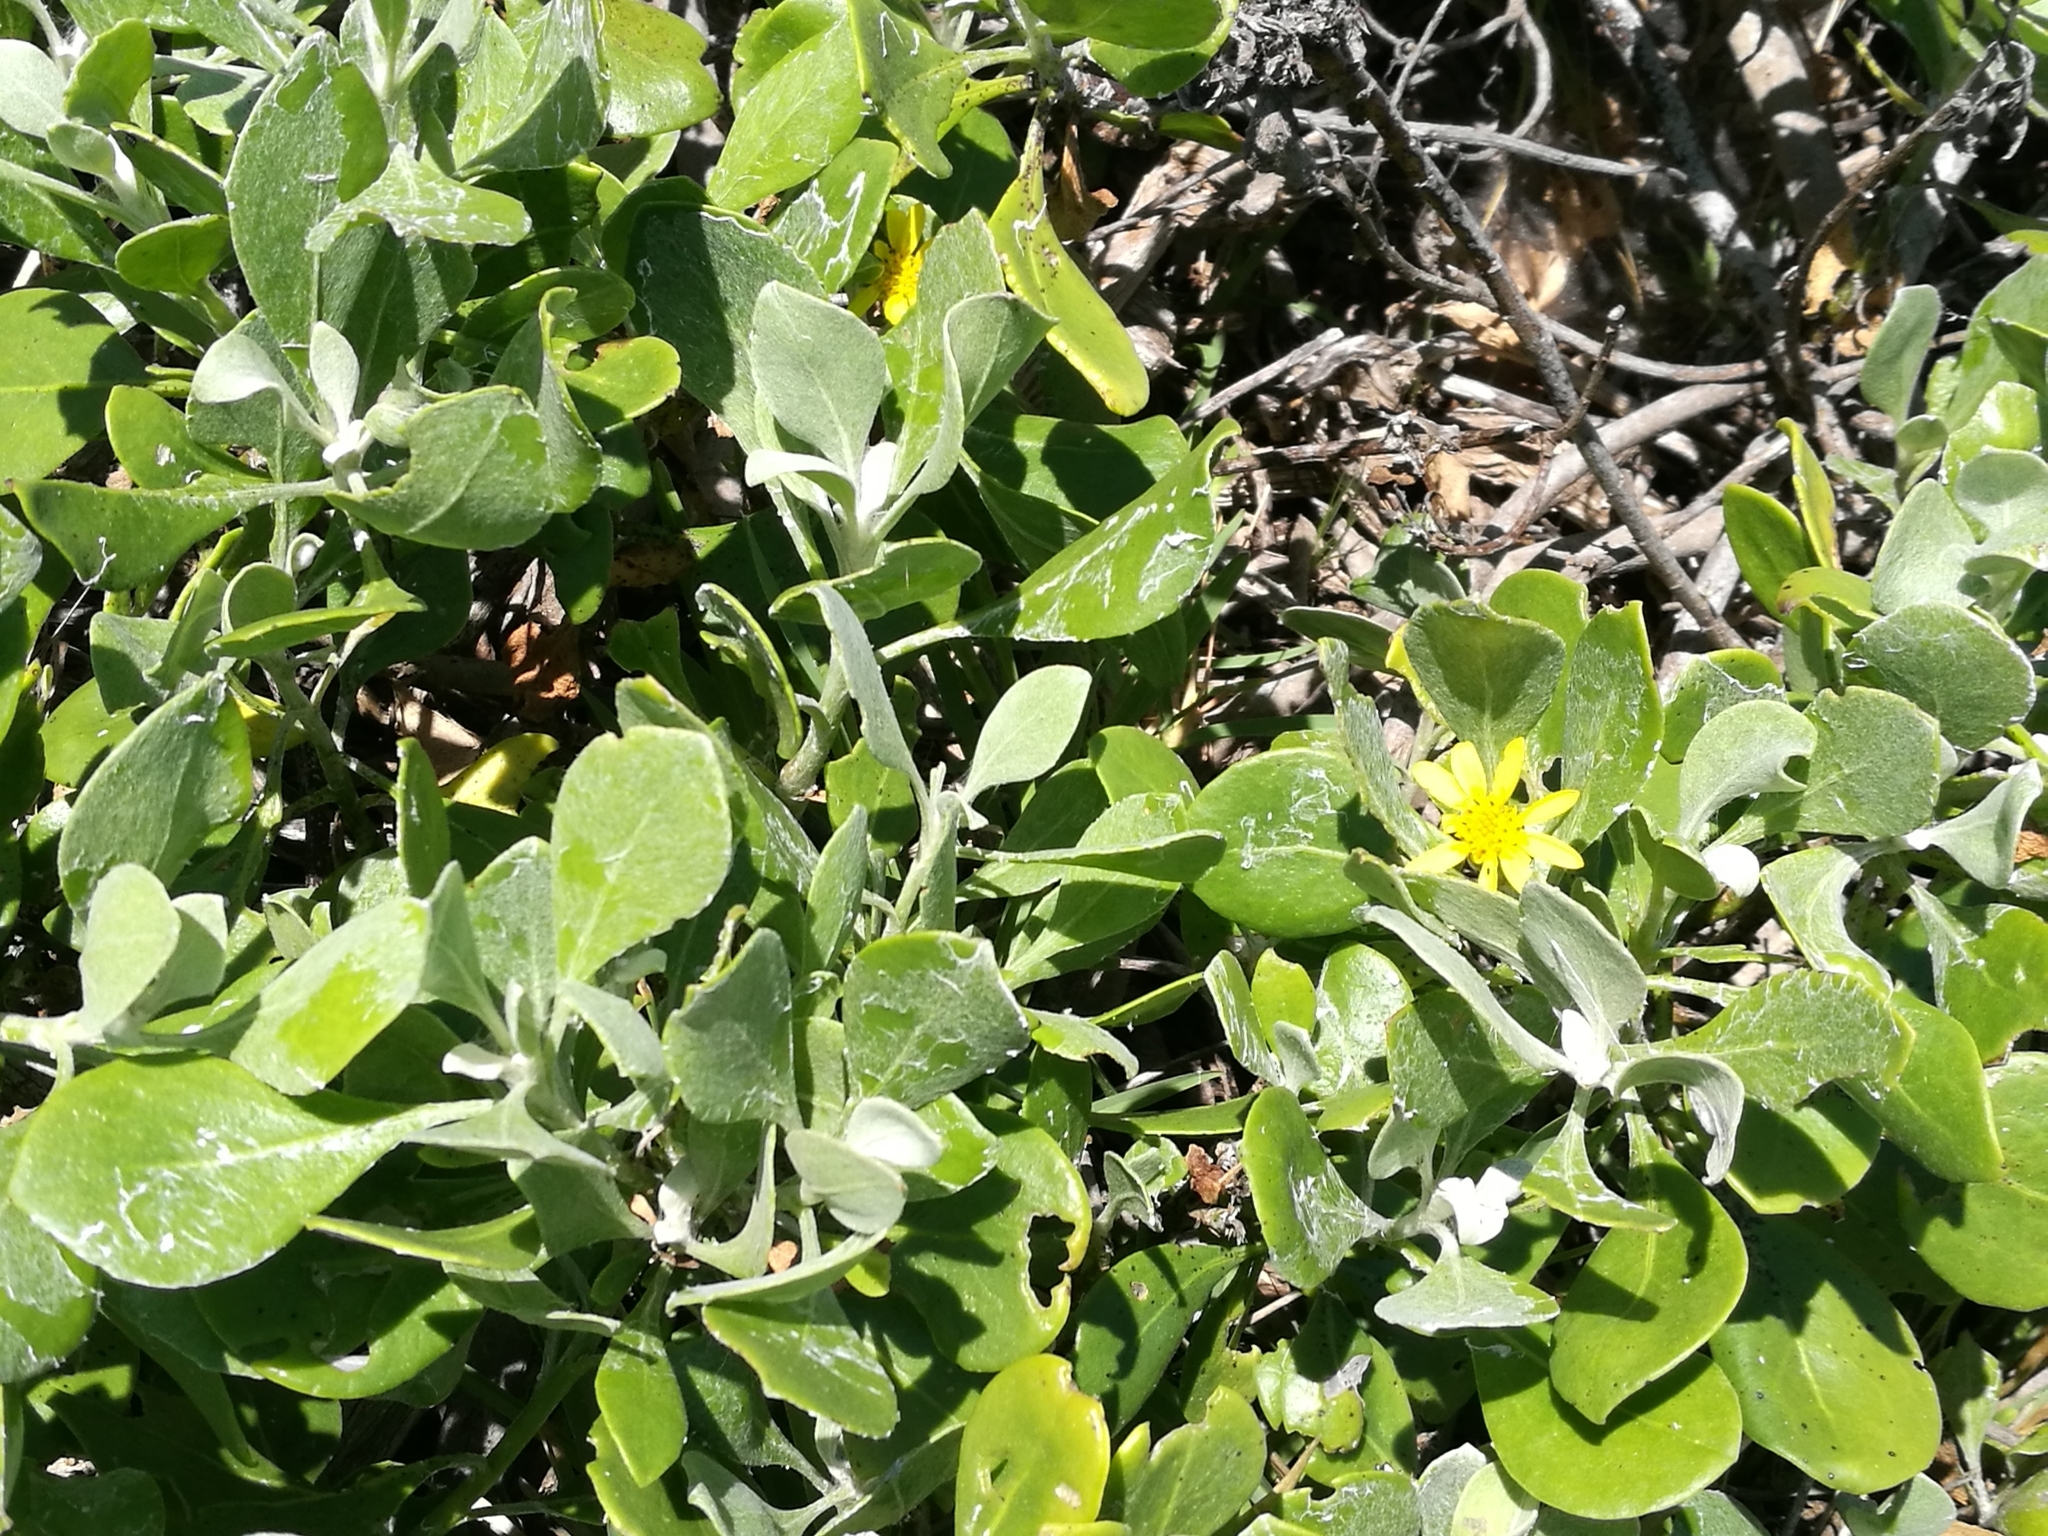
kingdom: Plantae
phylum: Tracheophyta
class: Magnoliopsida
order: Asterales
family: Asteraceae
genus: Osteospermum
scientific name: Osteospermum moniliferum
